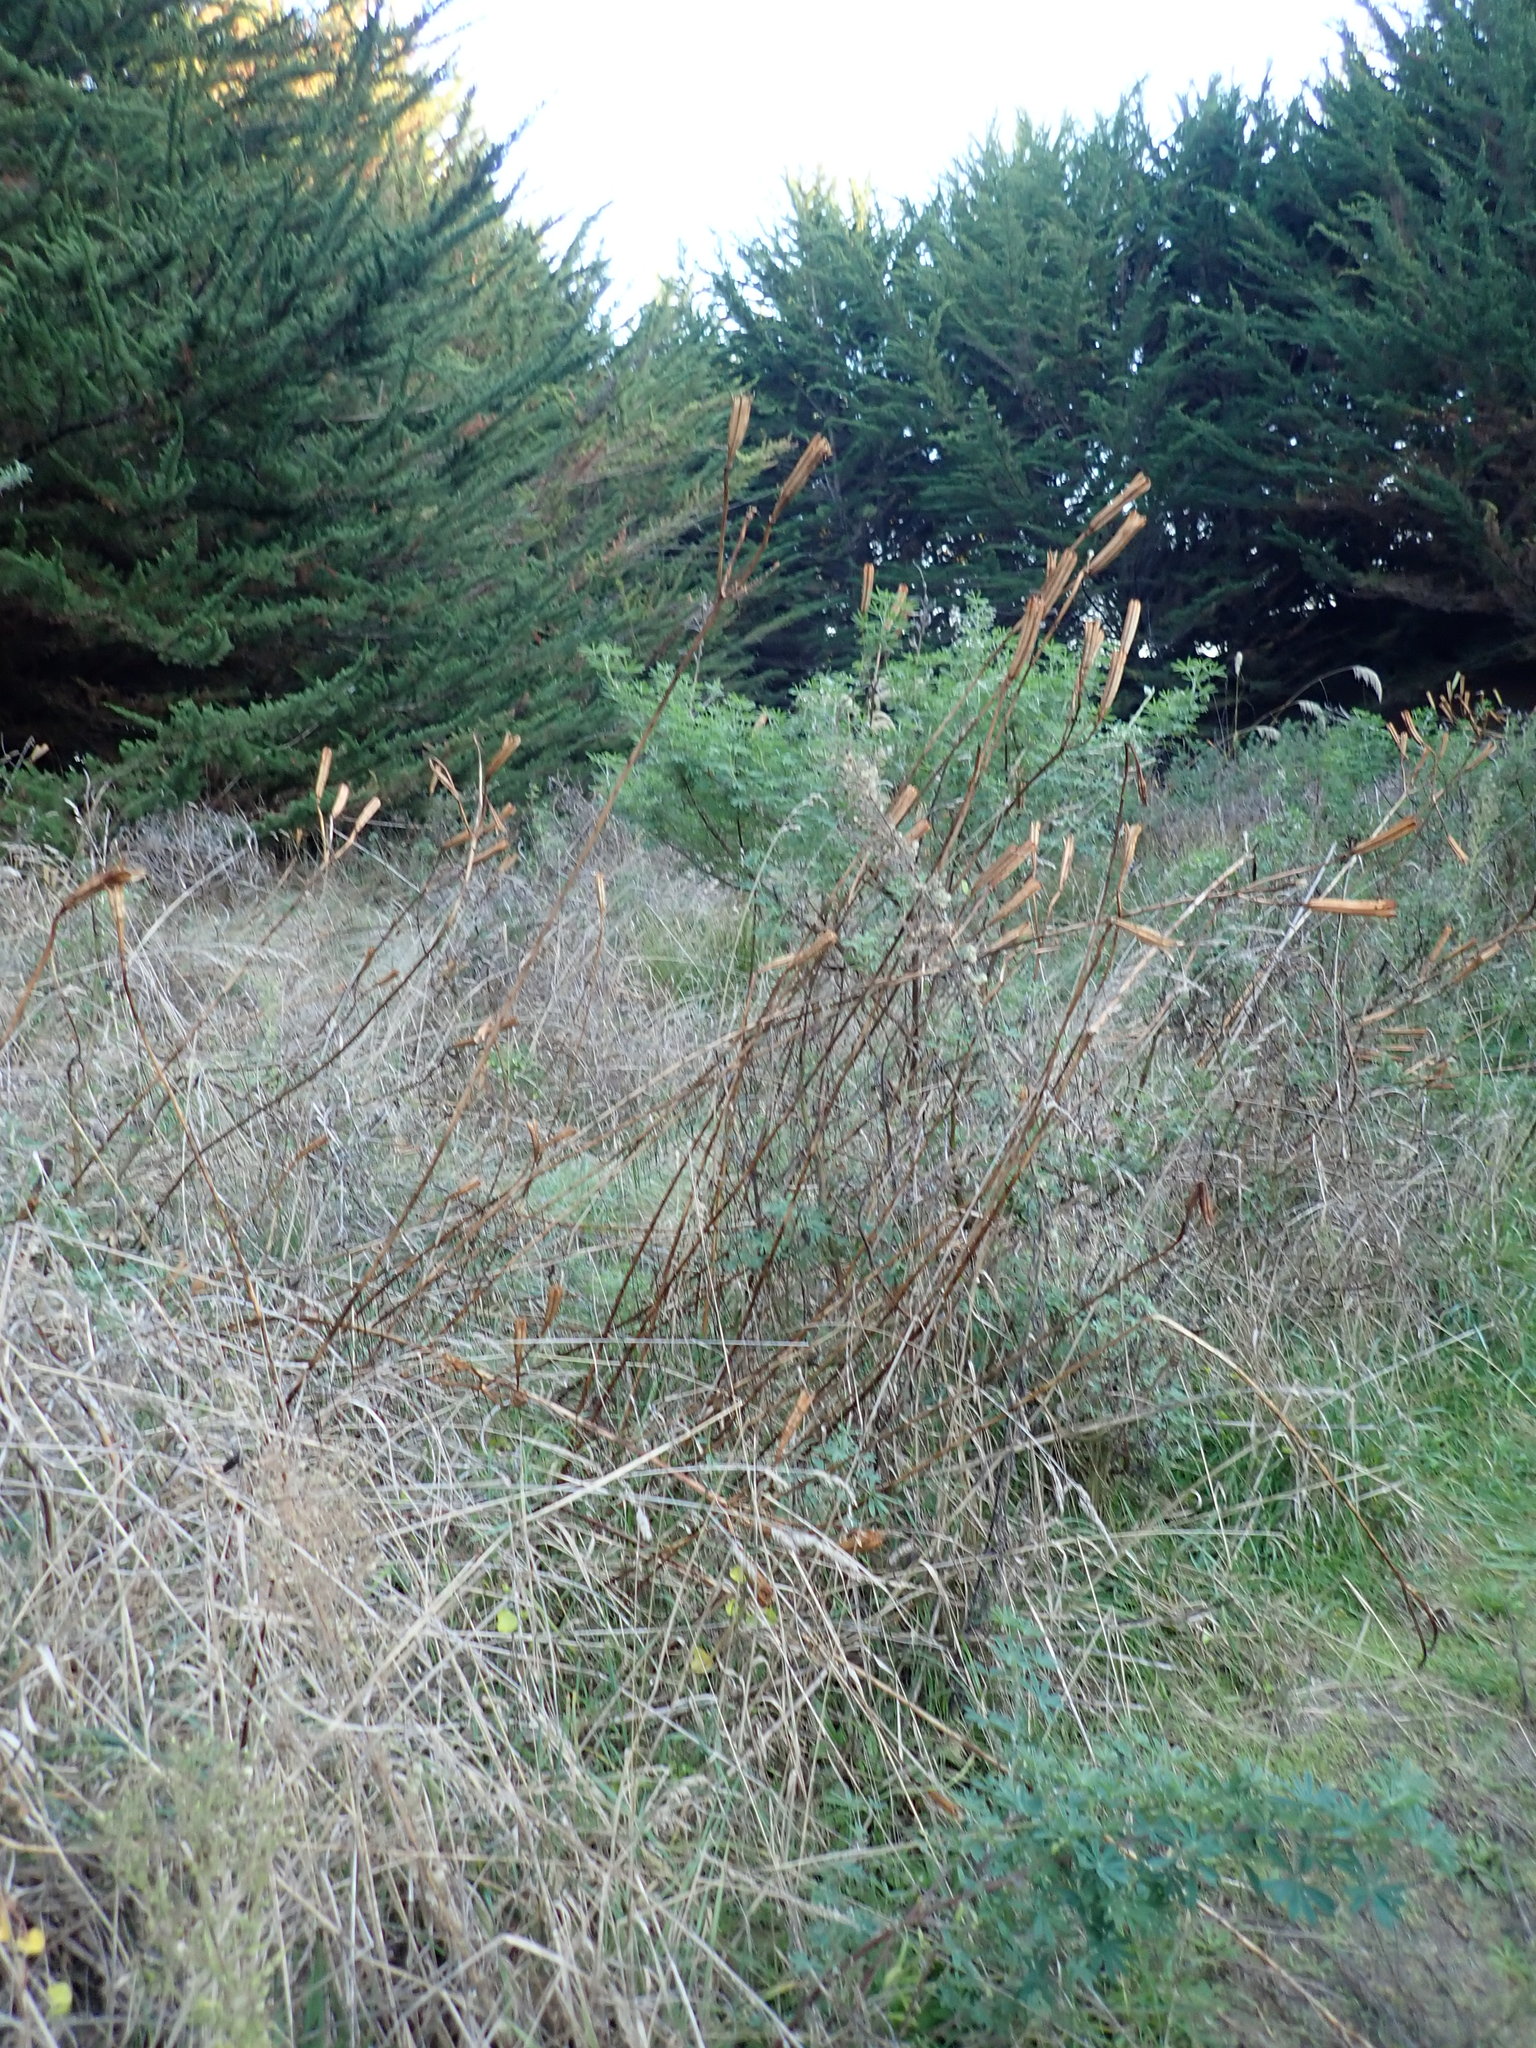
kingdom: Plantae
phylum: Tracheophyta
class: Liliopsida
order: Liliales
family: Liliaceae
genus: Lilium
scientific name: Lilium formosanum
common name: Formosa lily
